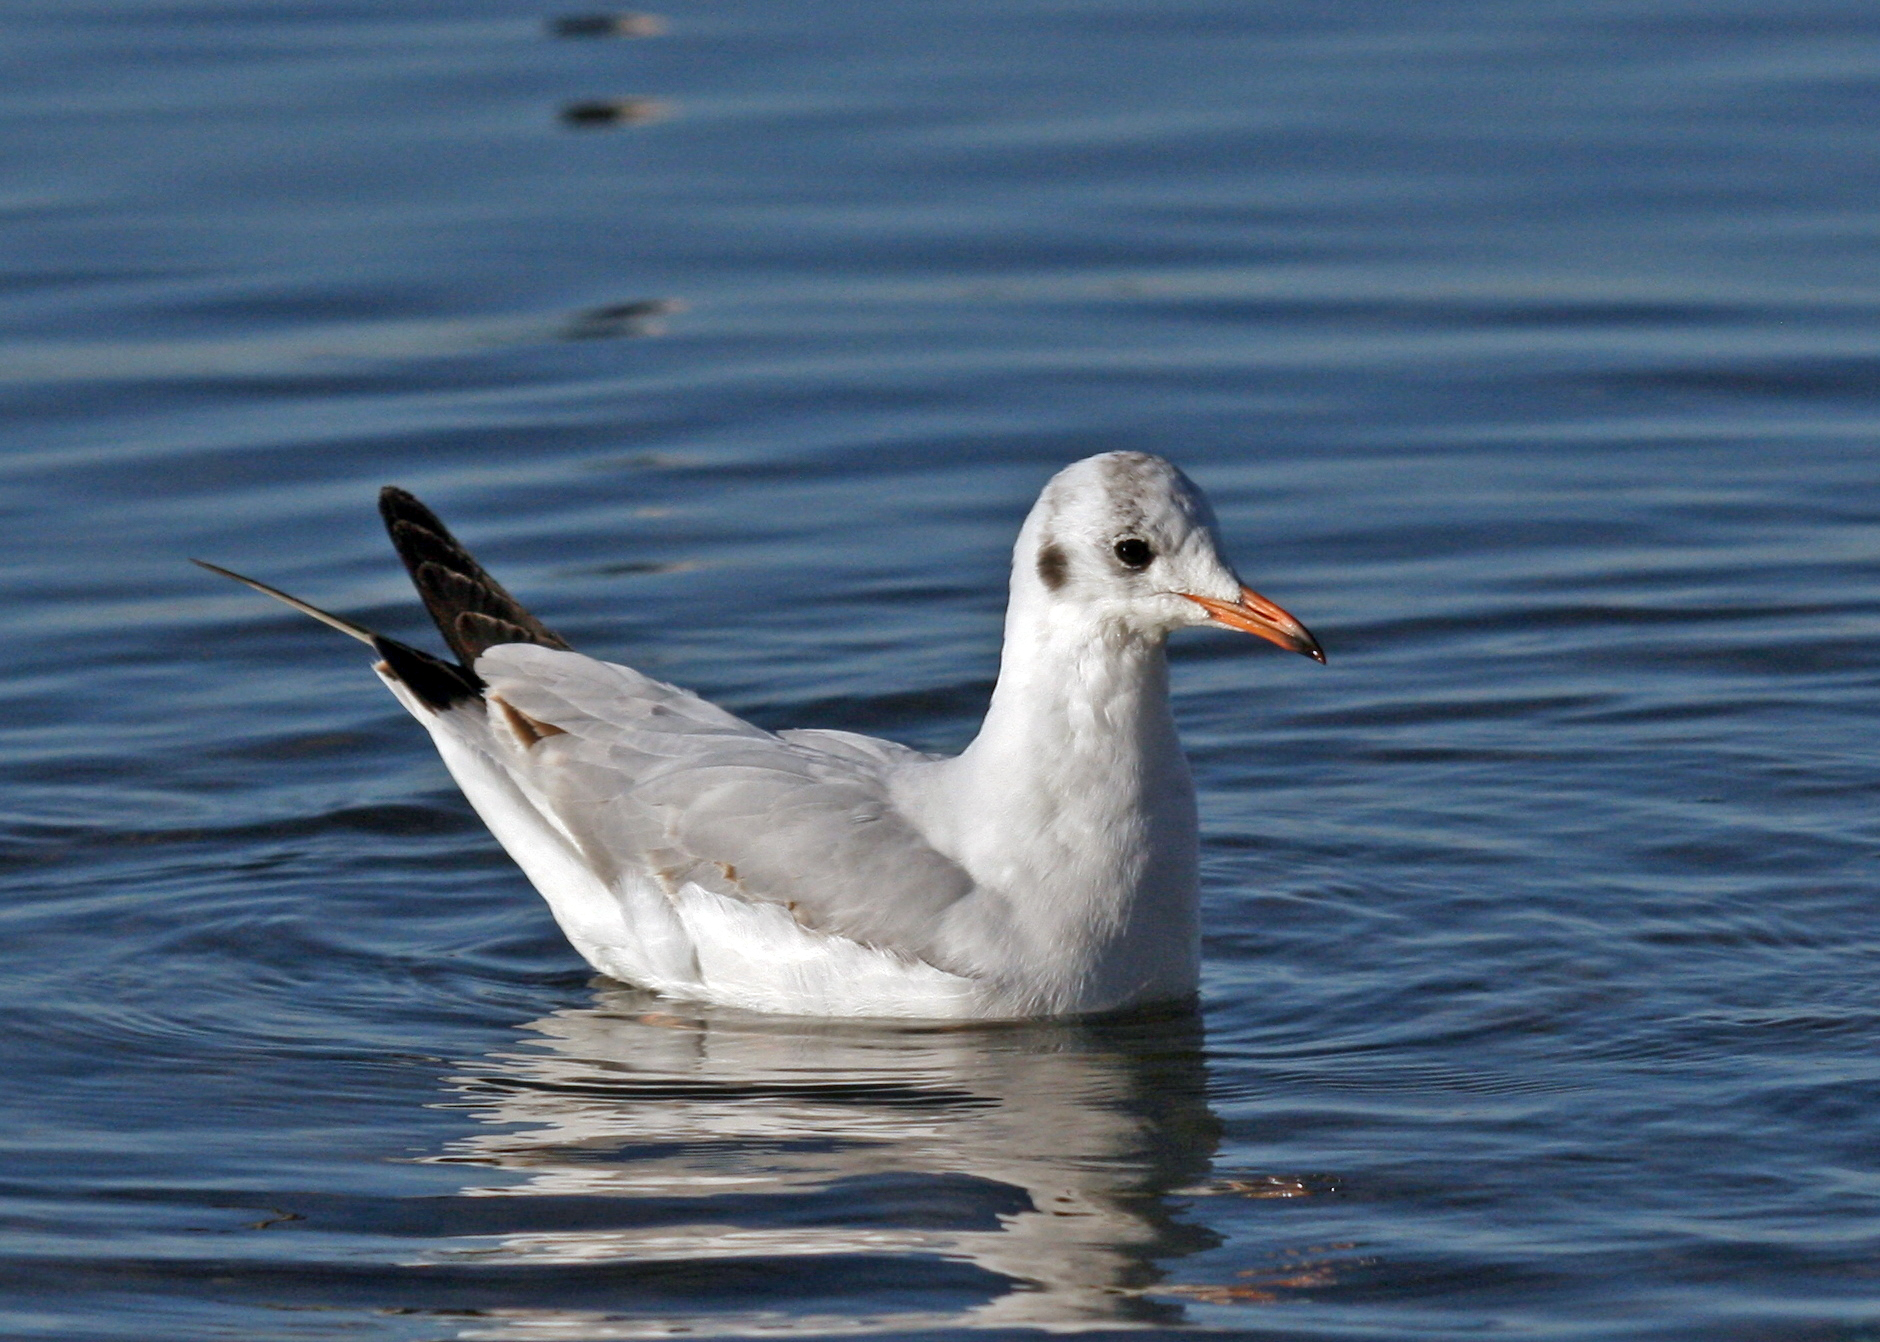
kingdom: Animalia
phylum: Chordata
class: Aves
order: Charadriiformes
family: Laridae
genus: Chroicocephalus
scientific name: Chroicocephalus ridibundus
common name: Black-headed gull
